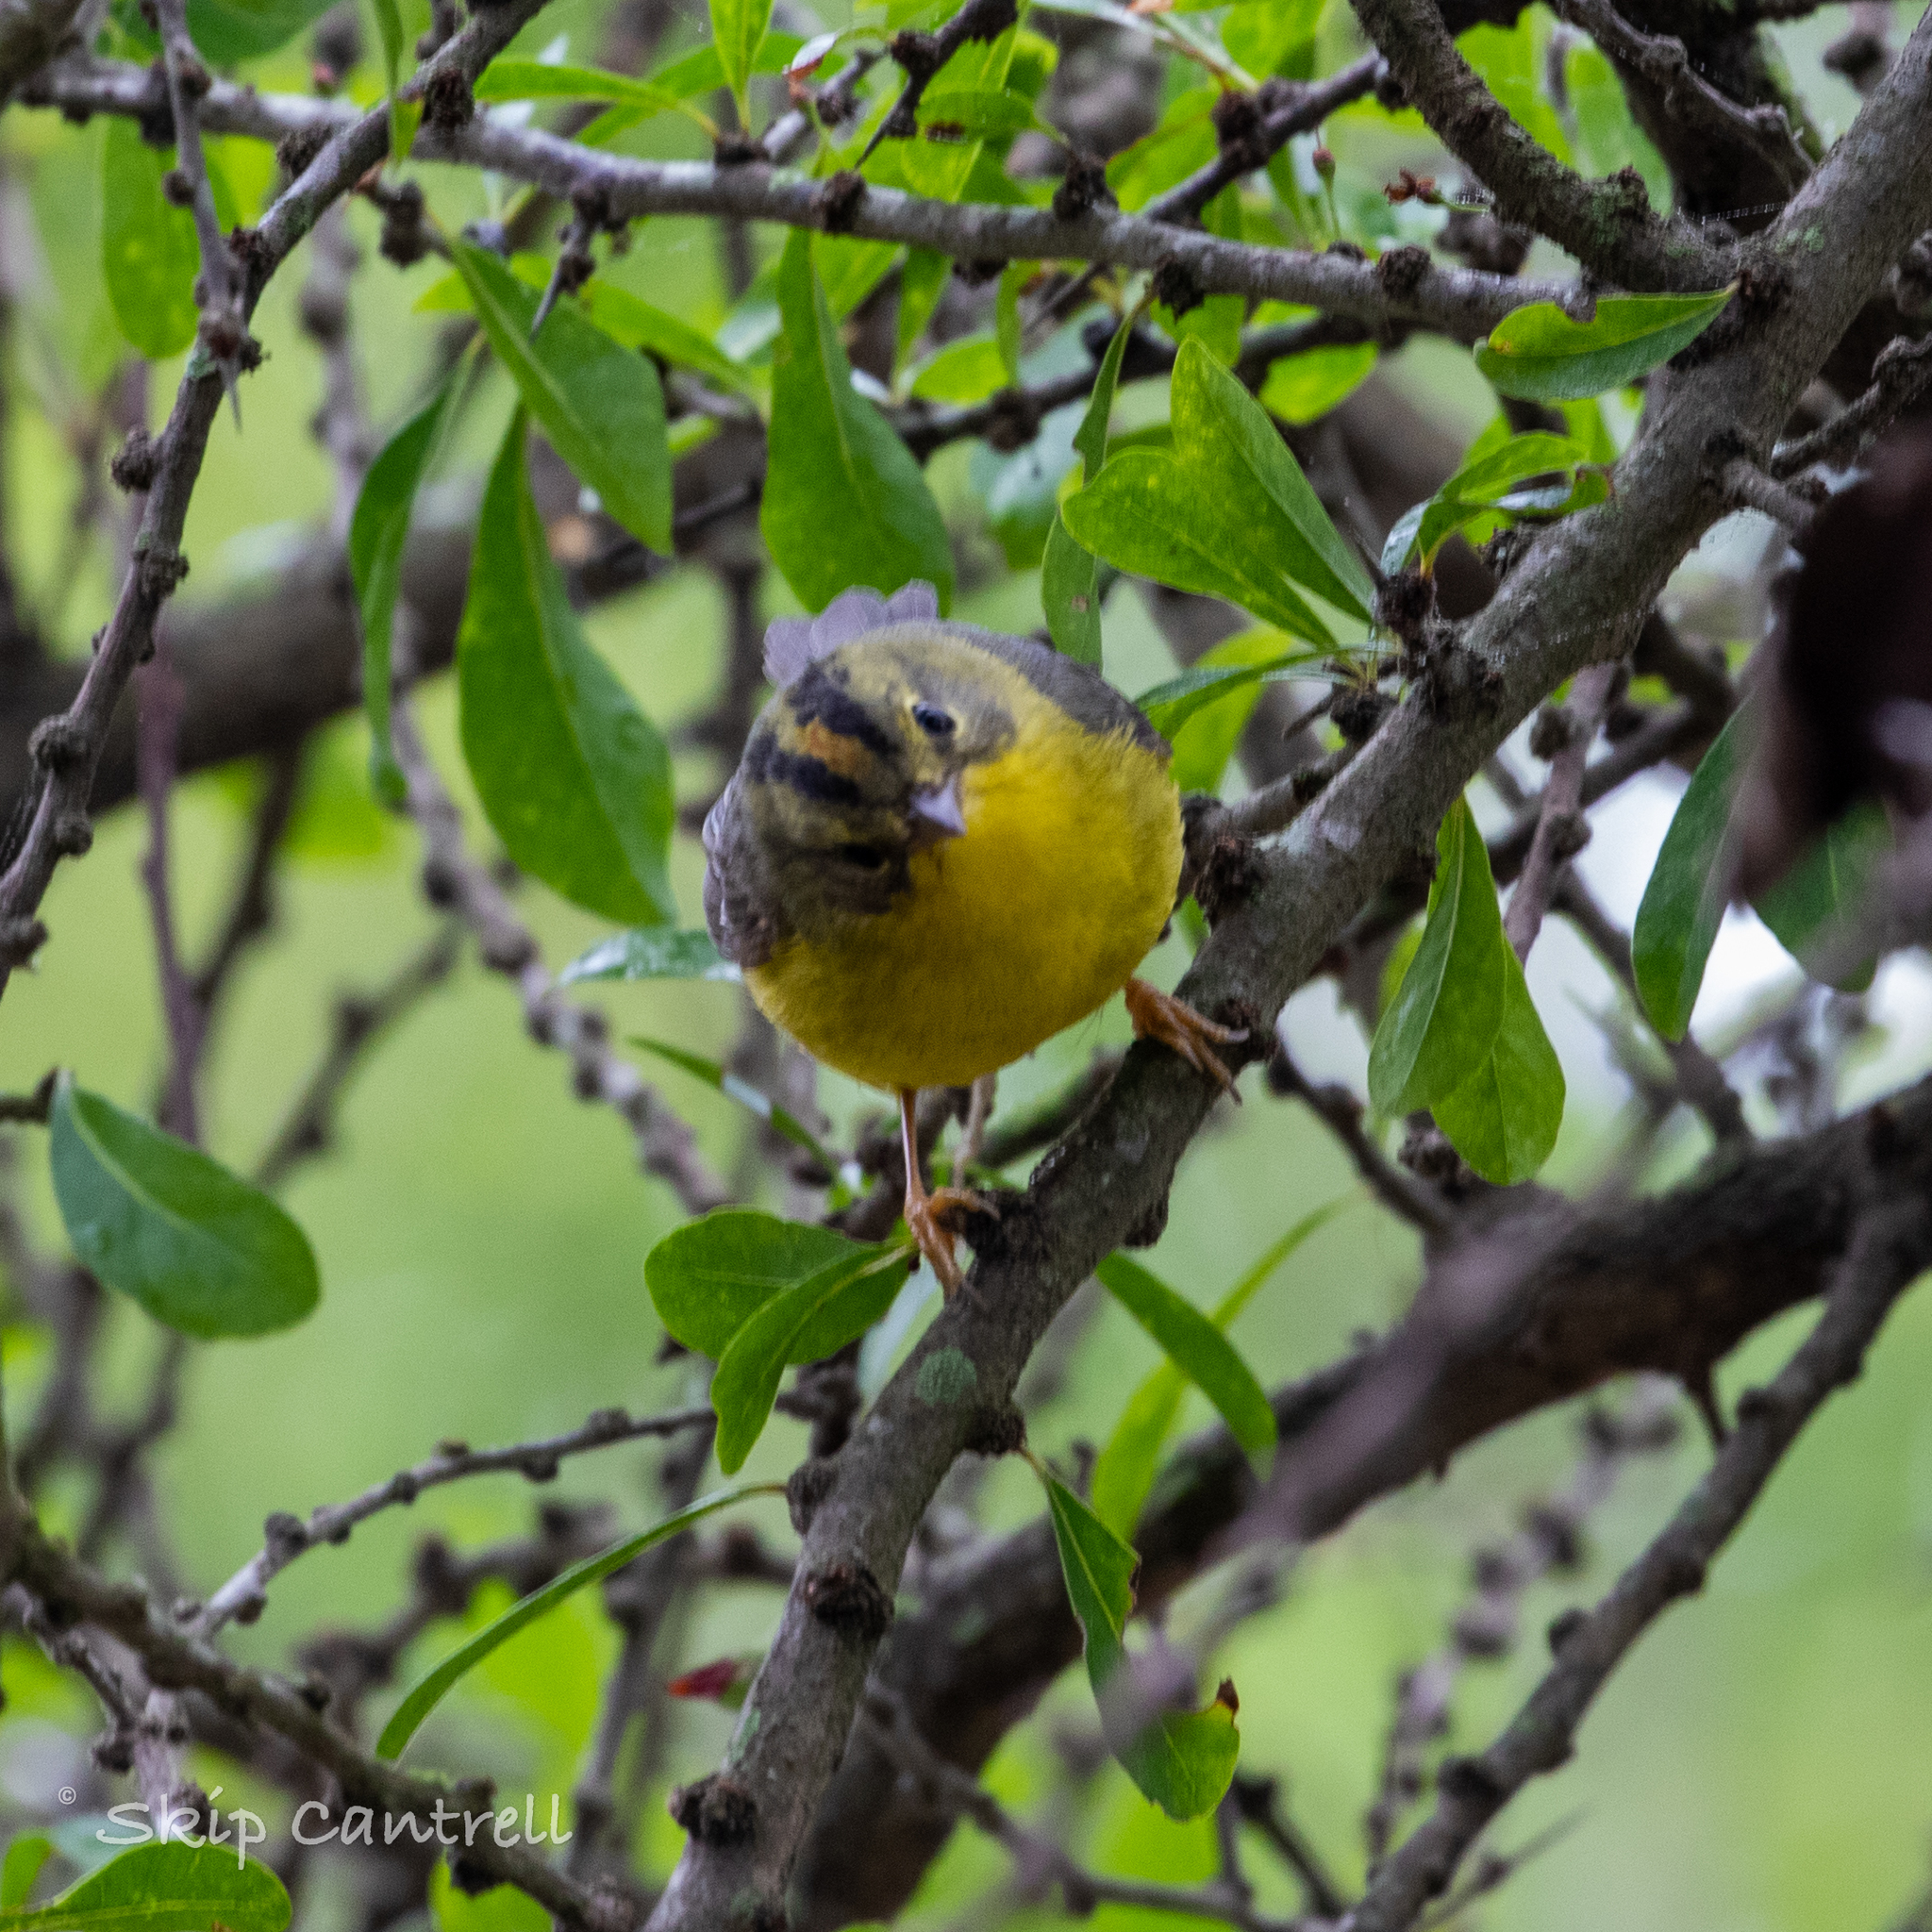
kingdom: Animalia
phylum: Chordata
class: Aves
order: Passeriformes
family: Parulidae
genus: Basileuterus
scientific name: Basileuterus culicivorus
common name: Golden-crowned warbler
